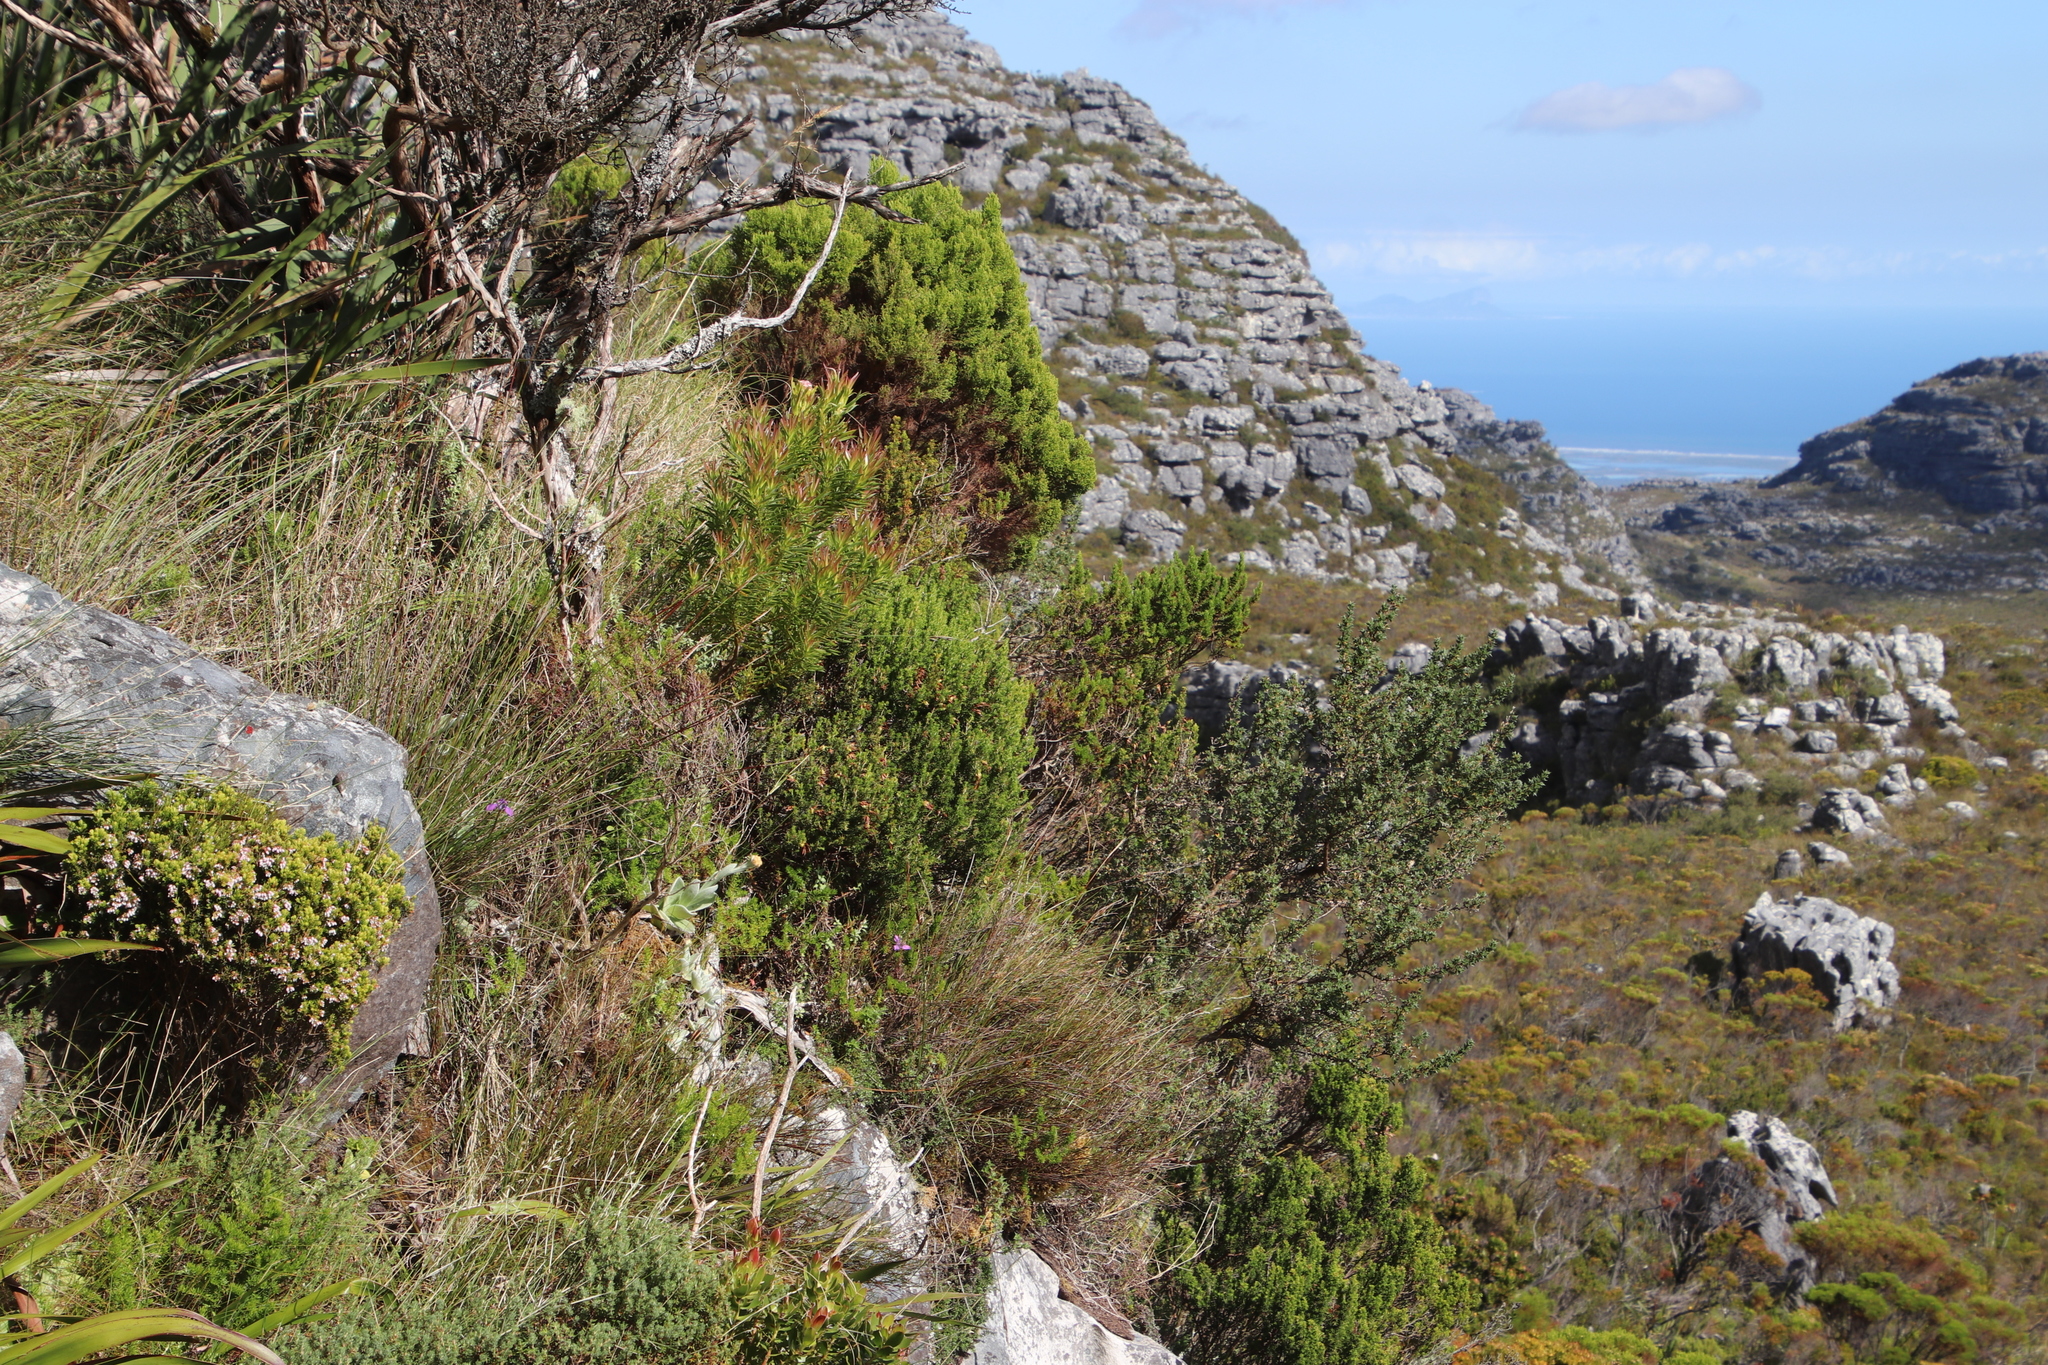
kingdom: Plantae
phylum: Tracheophyta
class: Magnoliopsida
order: Ericales
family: Ericaceae
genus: Erica
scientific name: Erica caterviflora
